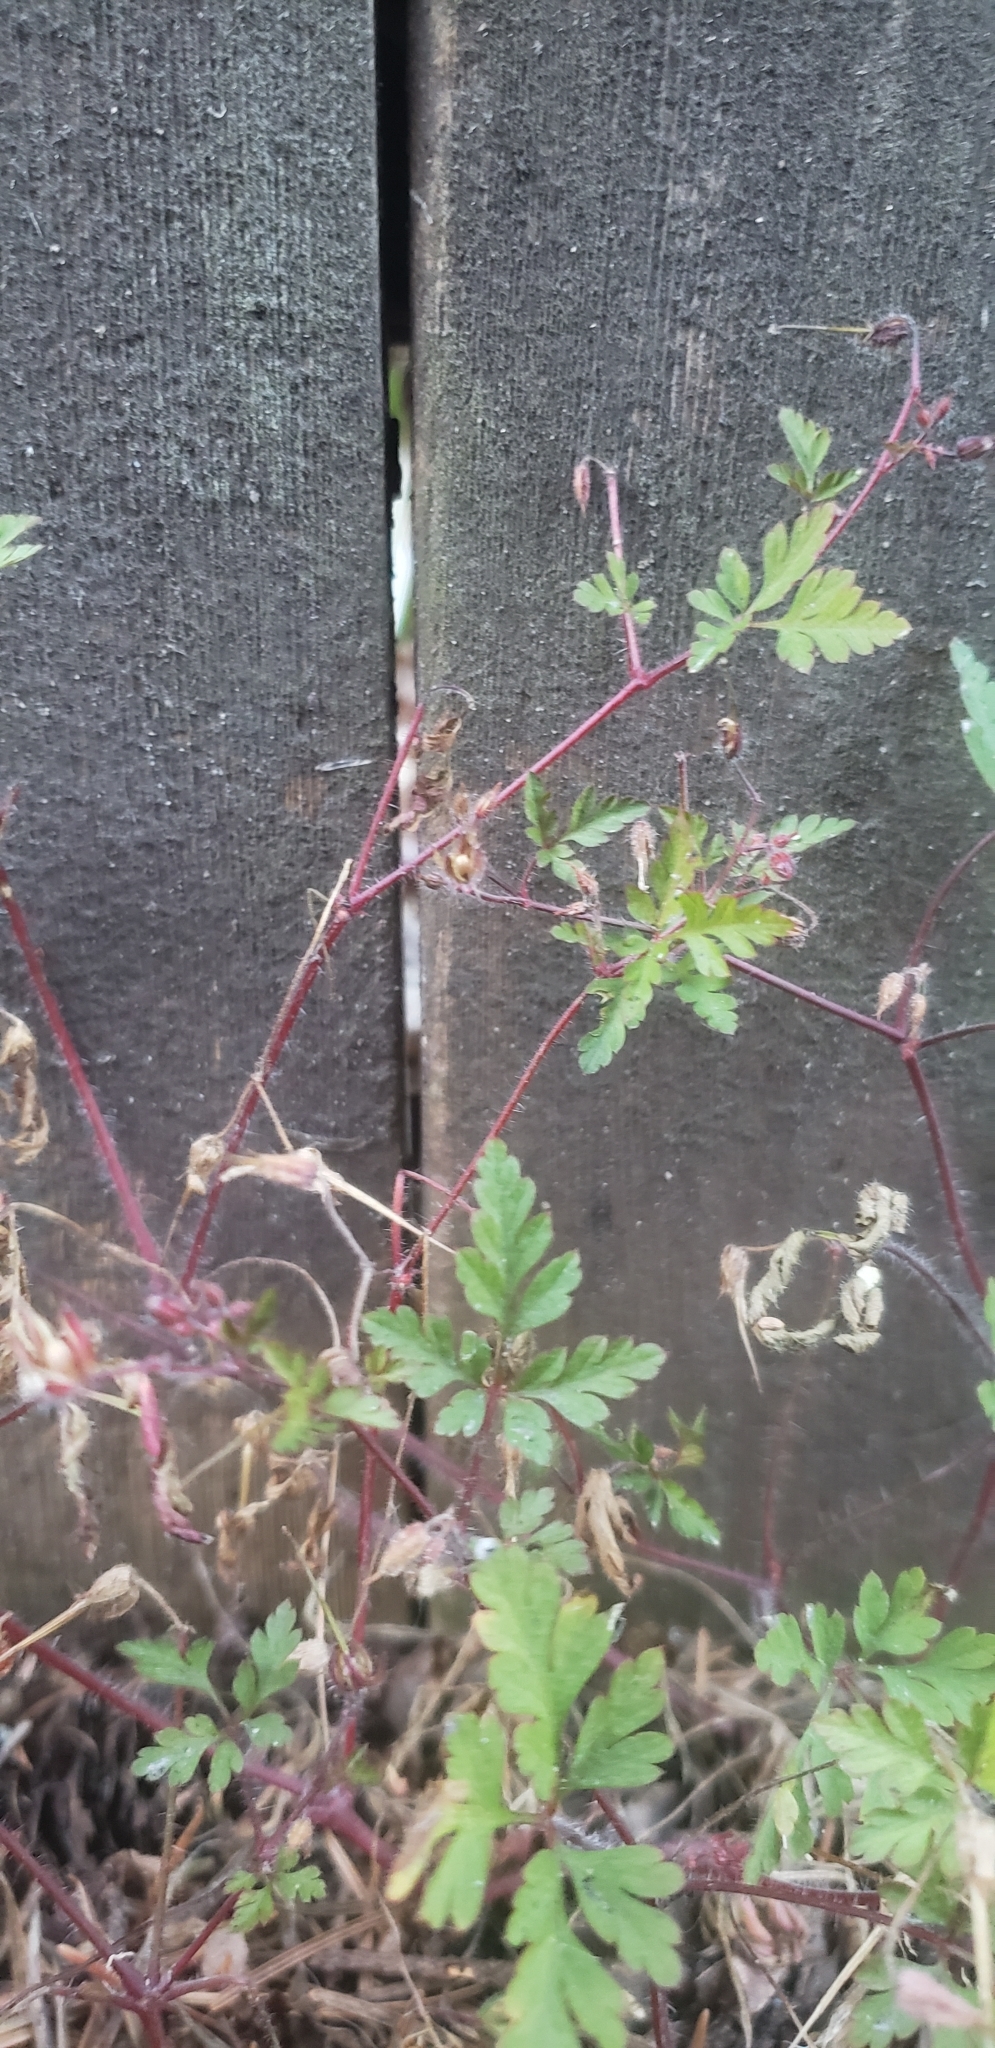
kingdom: Plantae
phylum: Tracheophyta
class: Magnoliopsida
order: Geraniales
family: Geraniaceae
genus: Geranium
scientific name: Geranium robertianum
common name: Herb-robert
